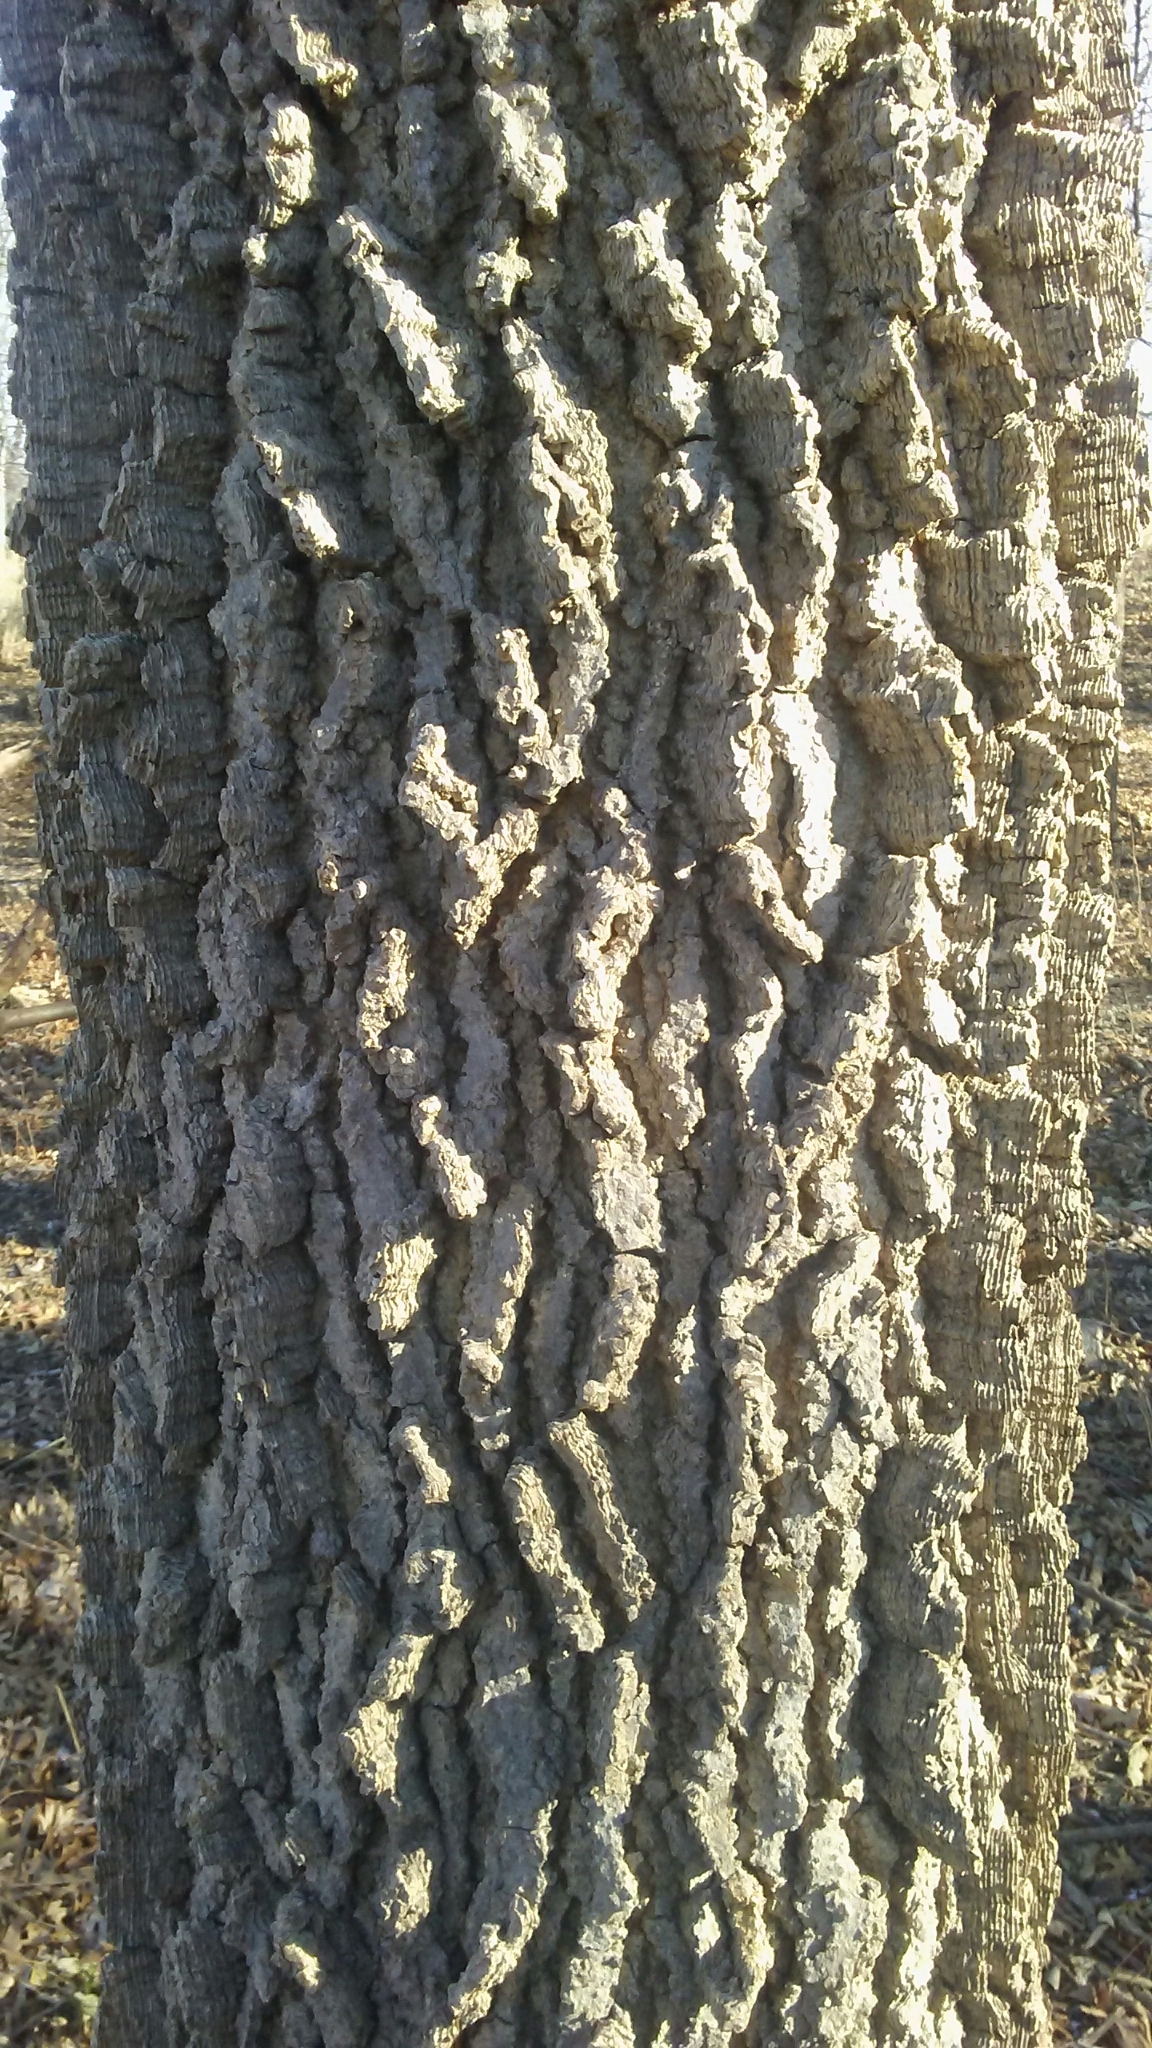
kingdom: Plantae
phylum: Tracheophyta
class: Magnoliopsida
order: Rosales
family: Cannabaceae
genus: Celtis
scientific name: Celtis occidentalis
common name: Common hackberry
